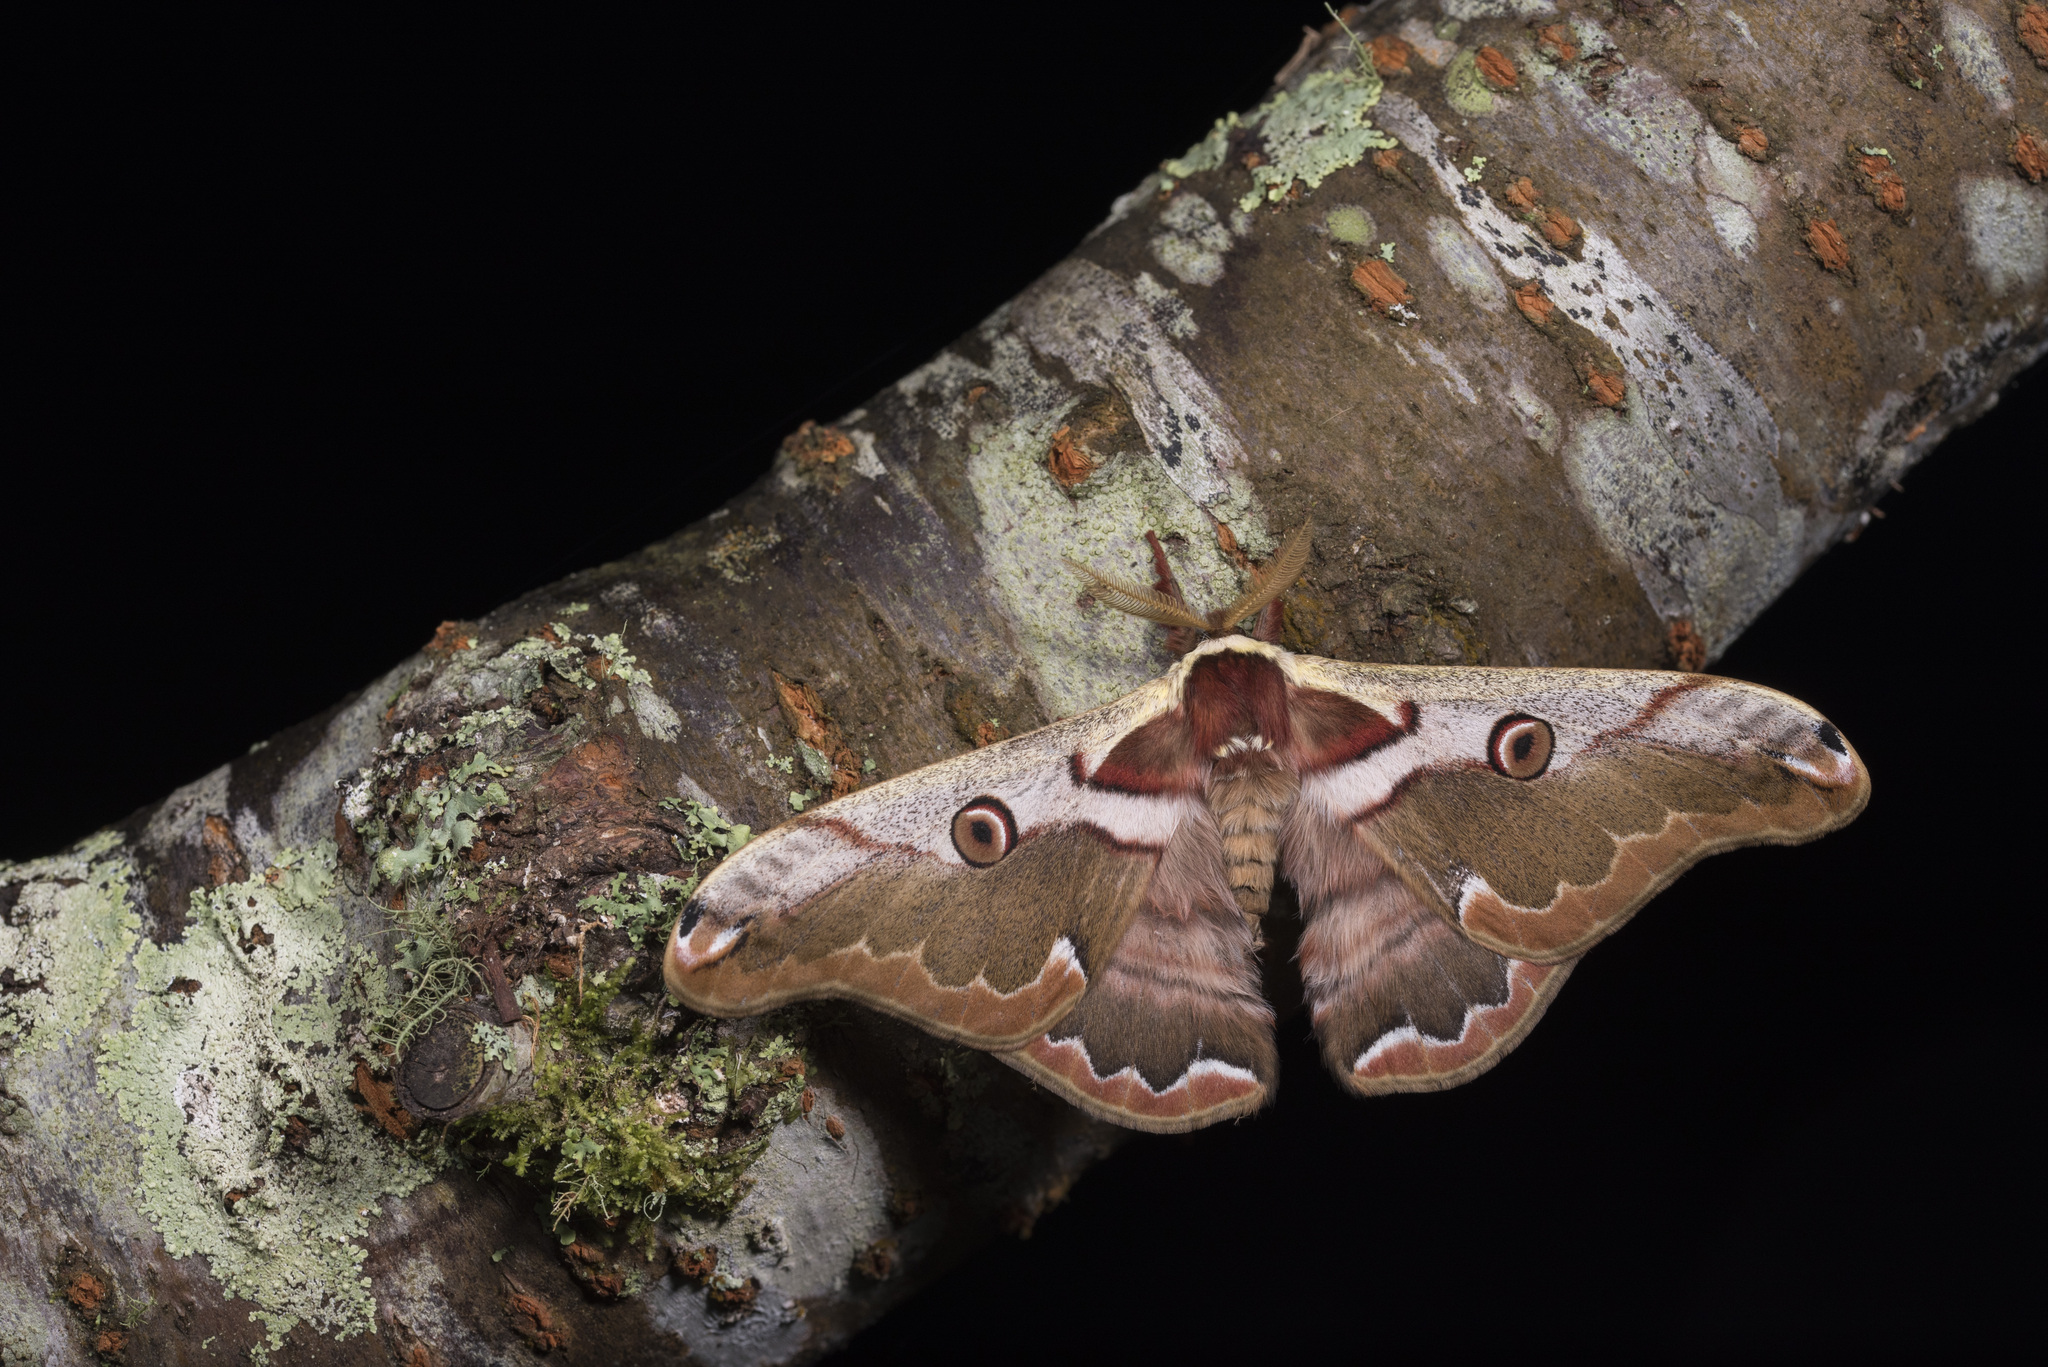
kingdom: Animalia
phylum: Arthropoda
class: Insecta
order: Lepidoptera
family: Saturniidae
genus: Rinaca
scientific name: Rinaca fukudai
